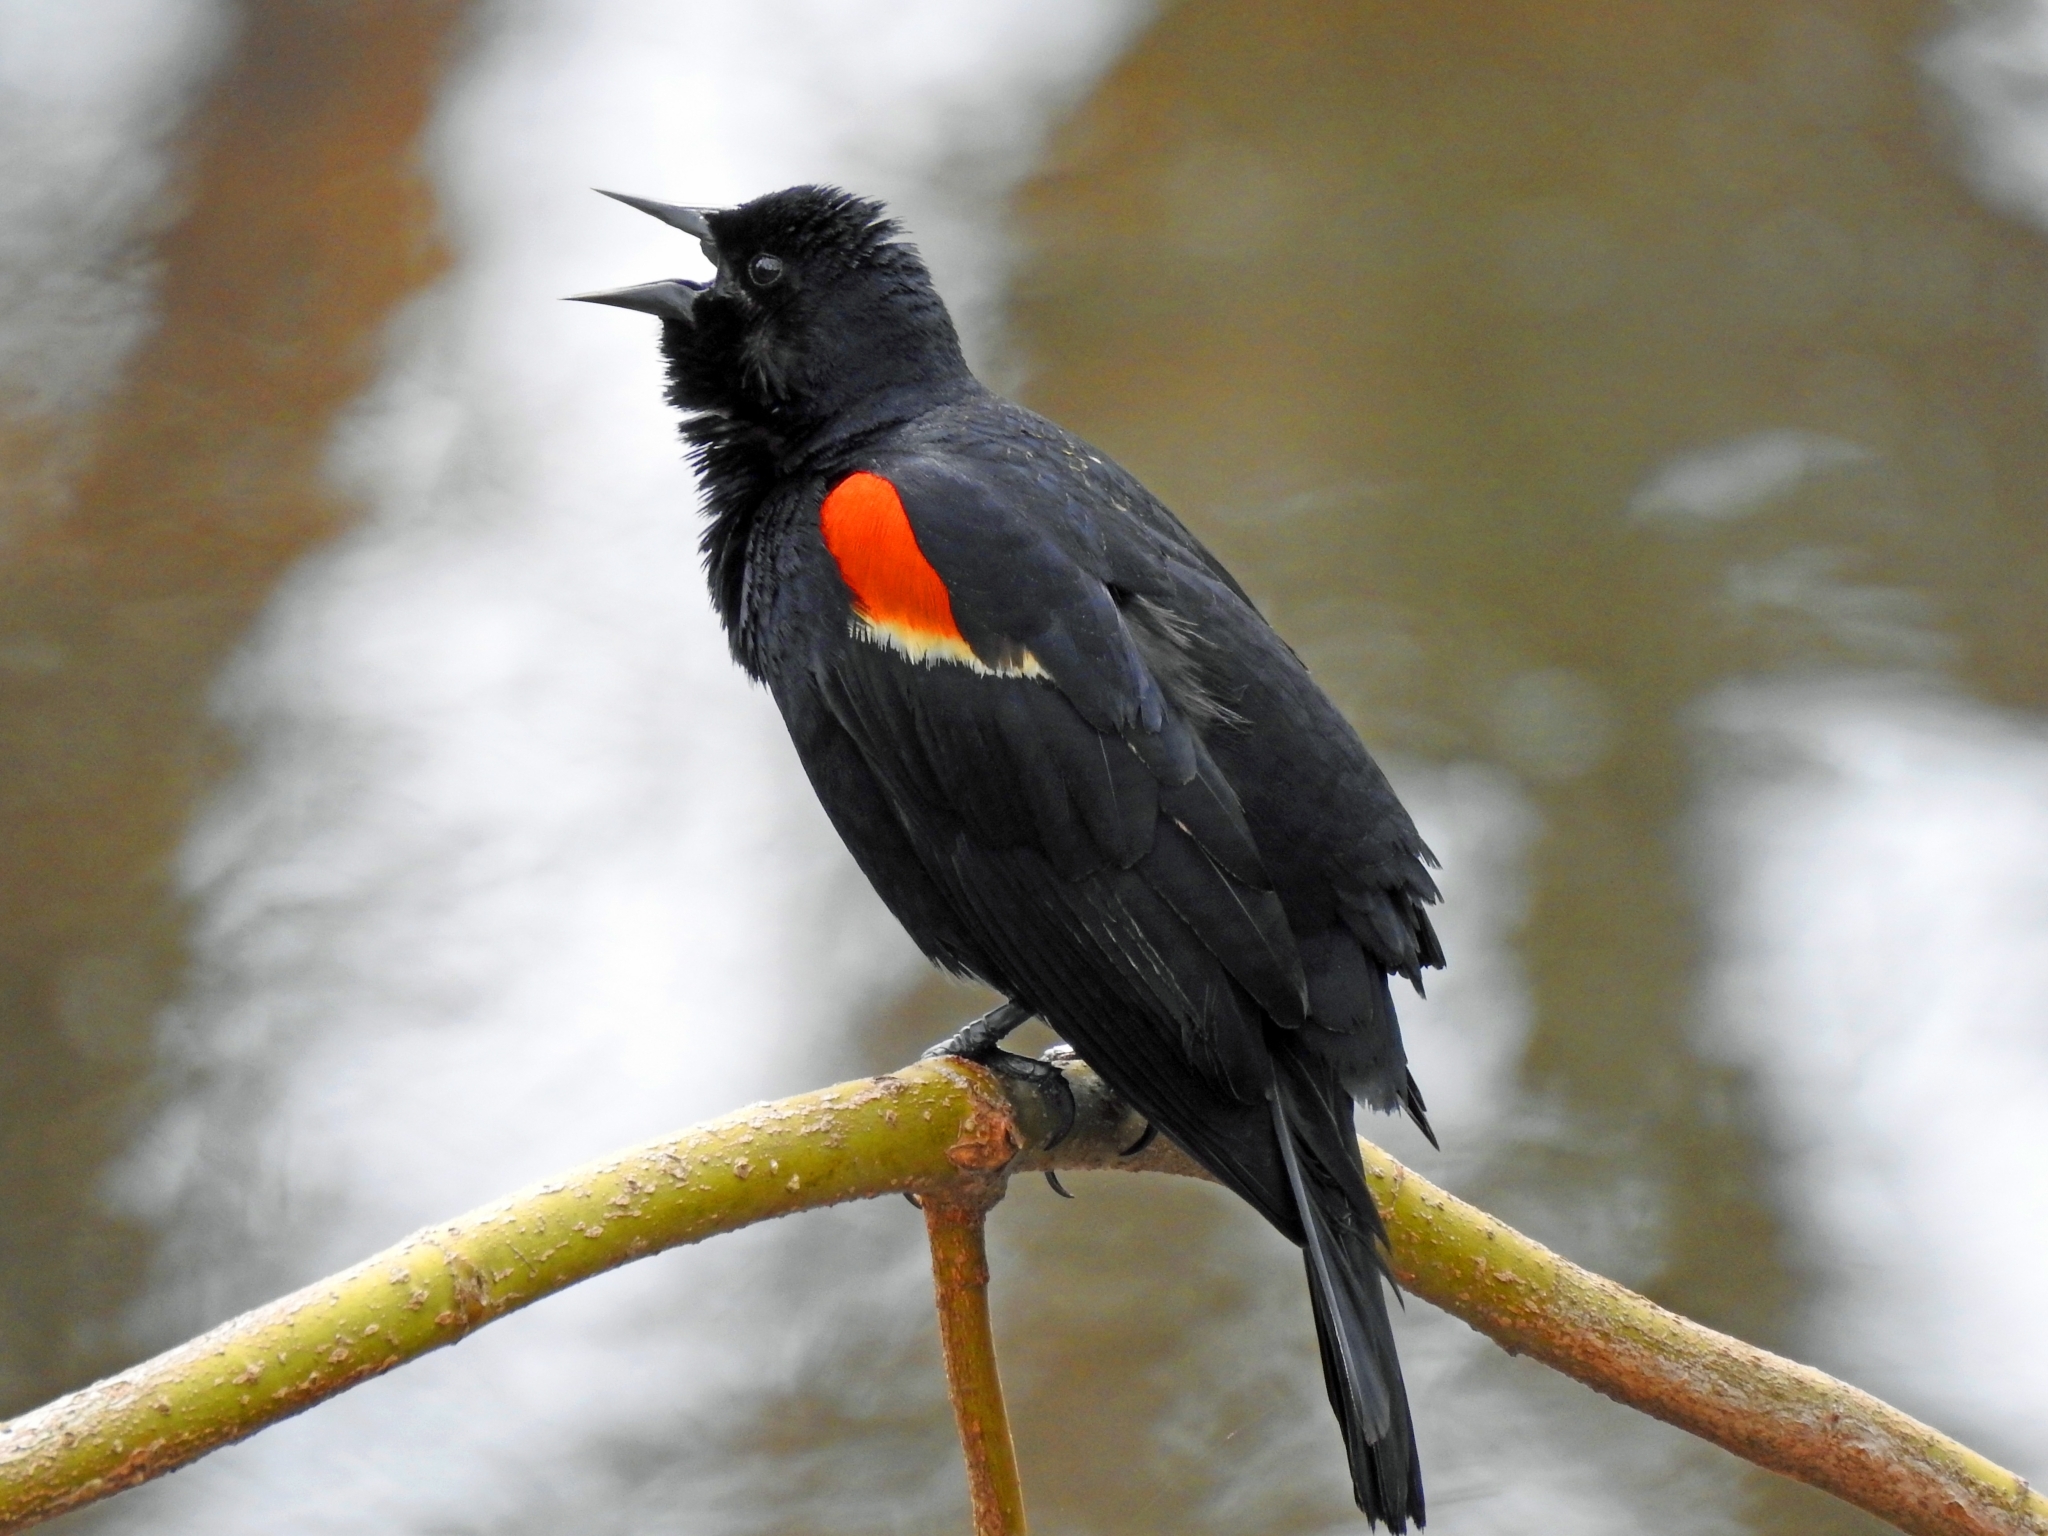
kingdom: Animalia
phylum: Chordata
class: Aves
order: Passeriformes
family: Icteridae
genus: Agelaius
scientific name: Agelaius phoeniceus
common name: Red-winged blackbird
